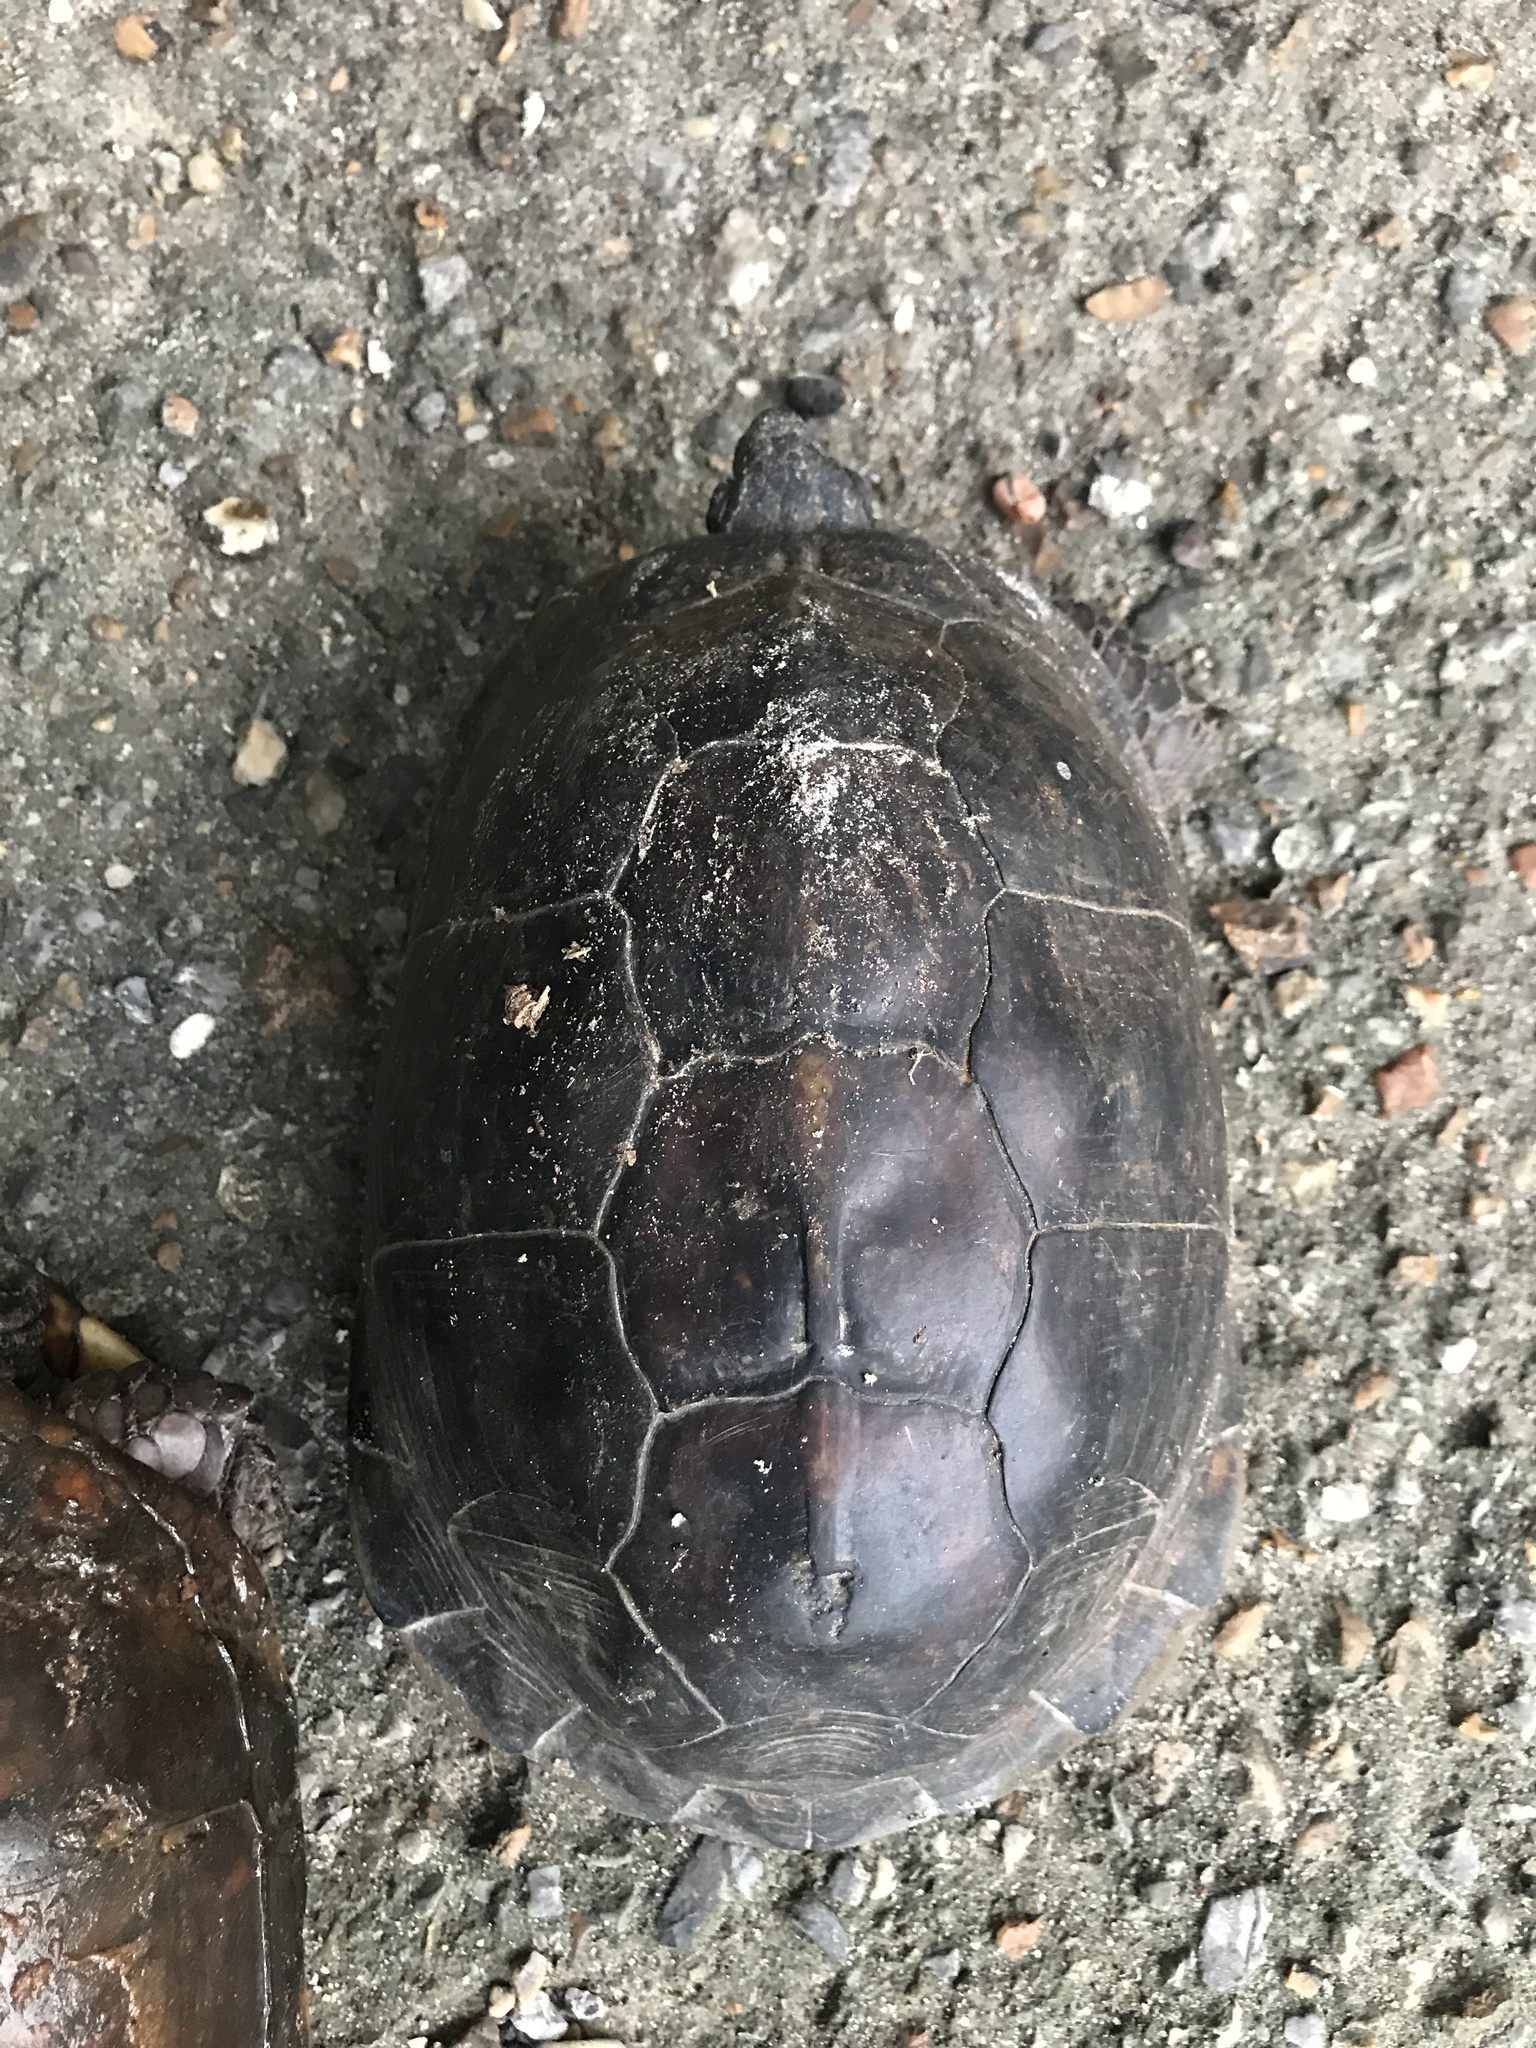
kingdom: Animalia
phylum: Chordata
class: Testudines
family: Emydidae
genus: Terrapene
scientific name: Terrapene carolina
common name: Common box turtle
